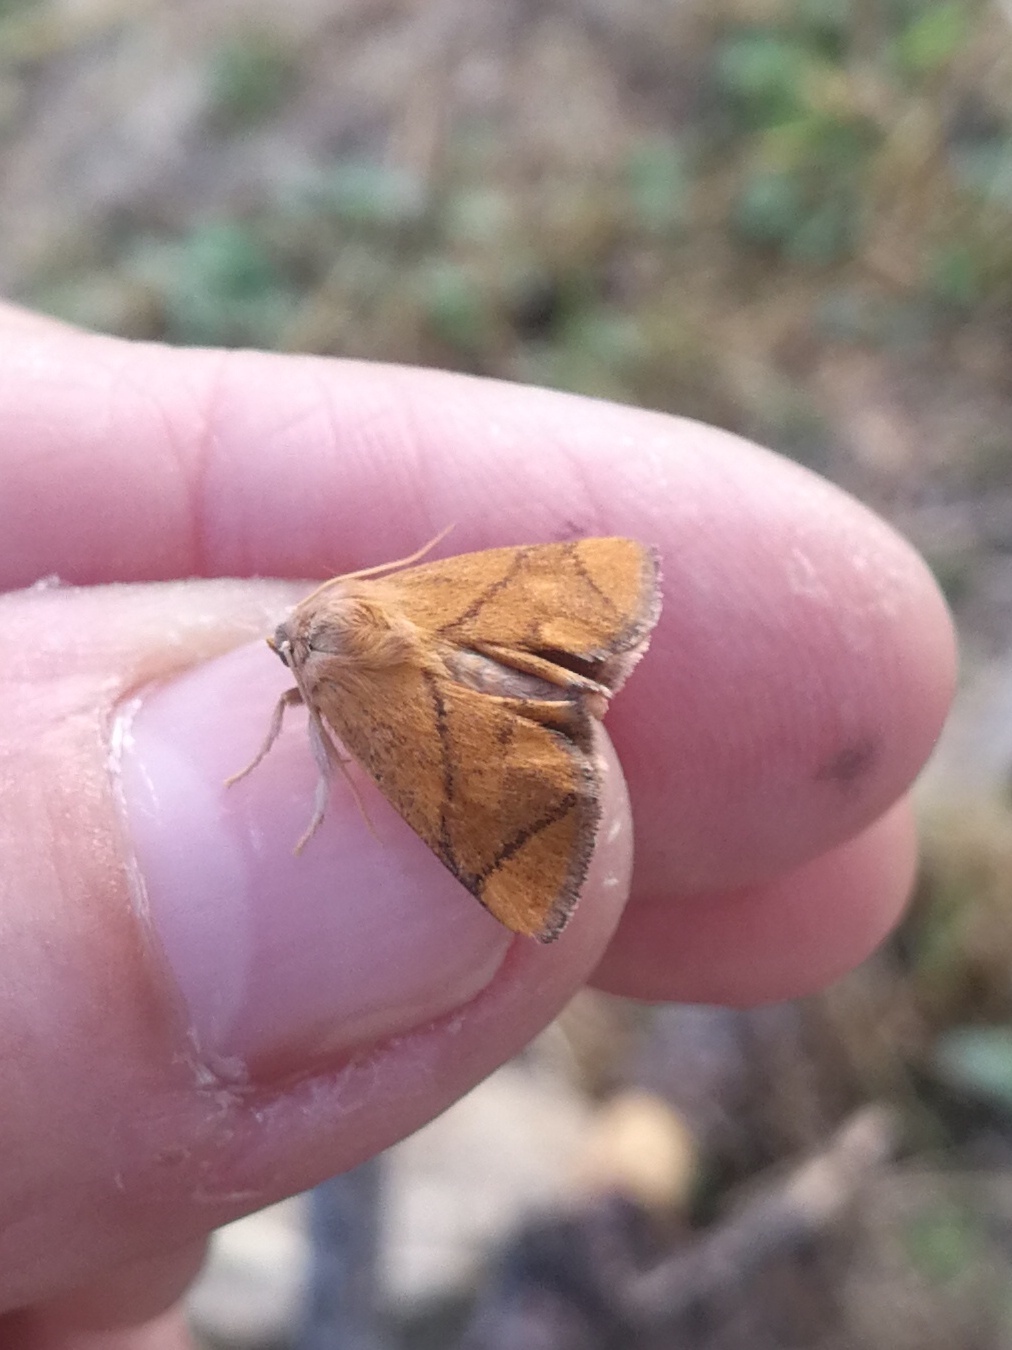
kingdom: Animalia
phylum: Arthropoda
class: Insecta
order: Lepidoptera
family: Limacodidae
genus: Apoda
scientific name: Apoda limacodes
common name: Festoon
